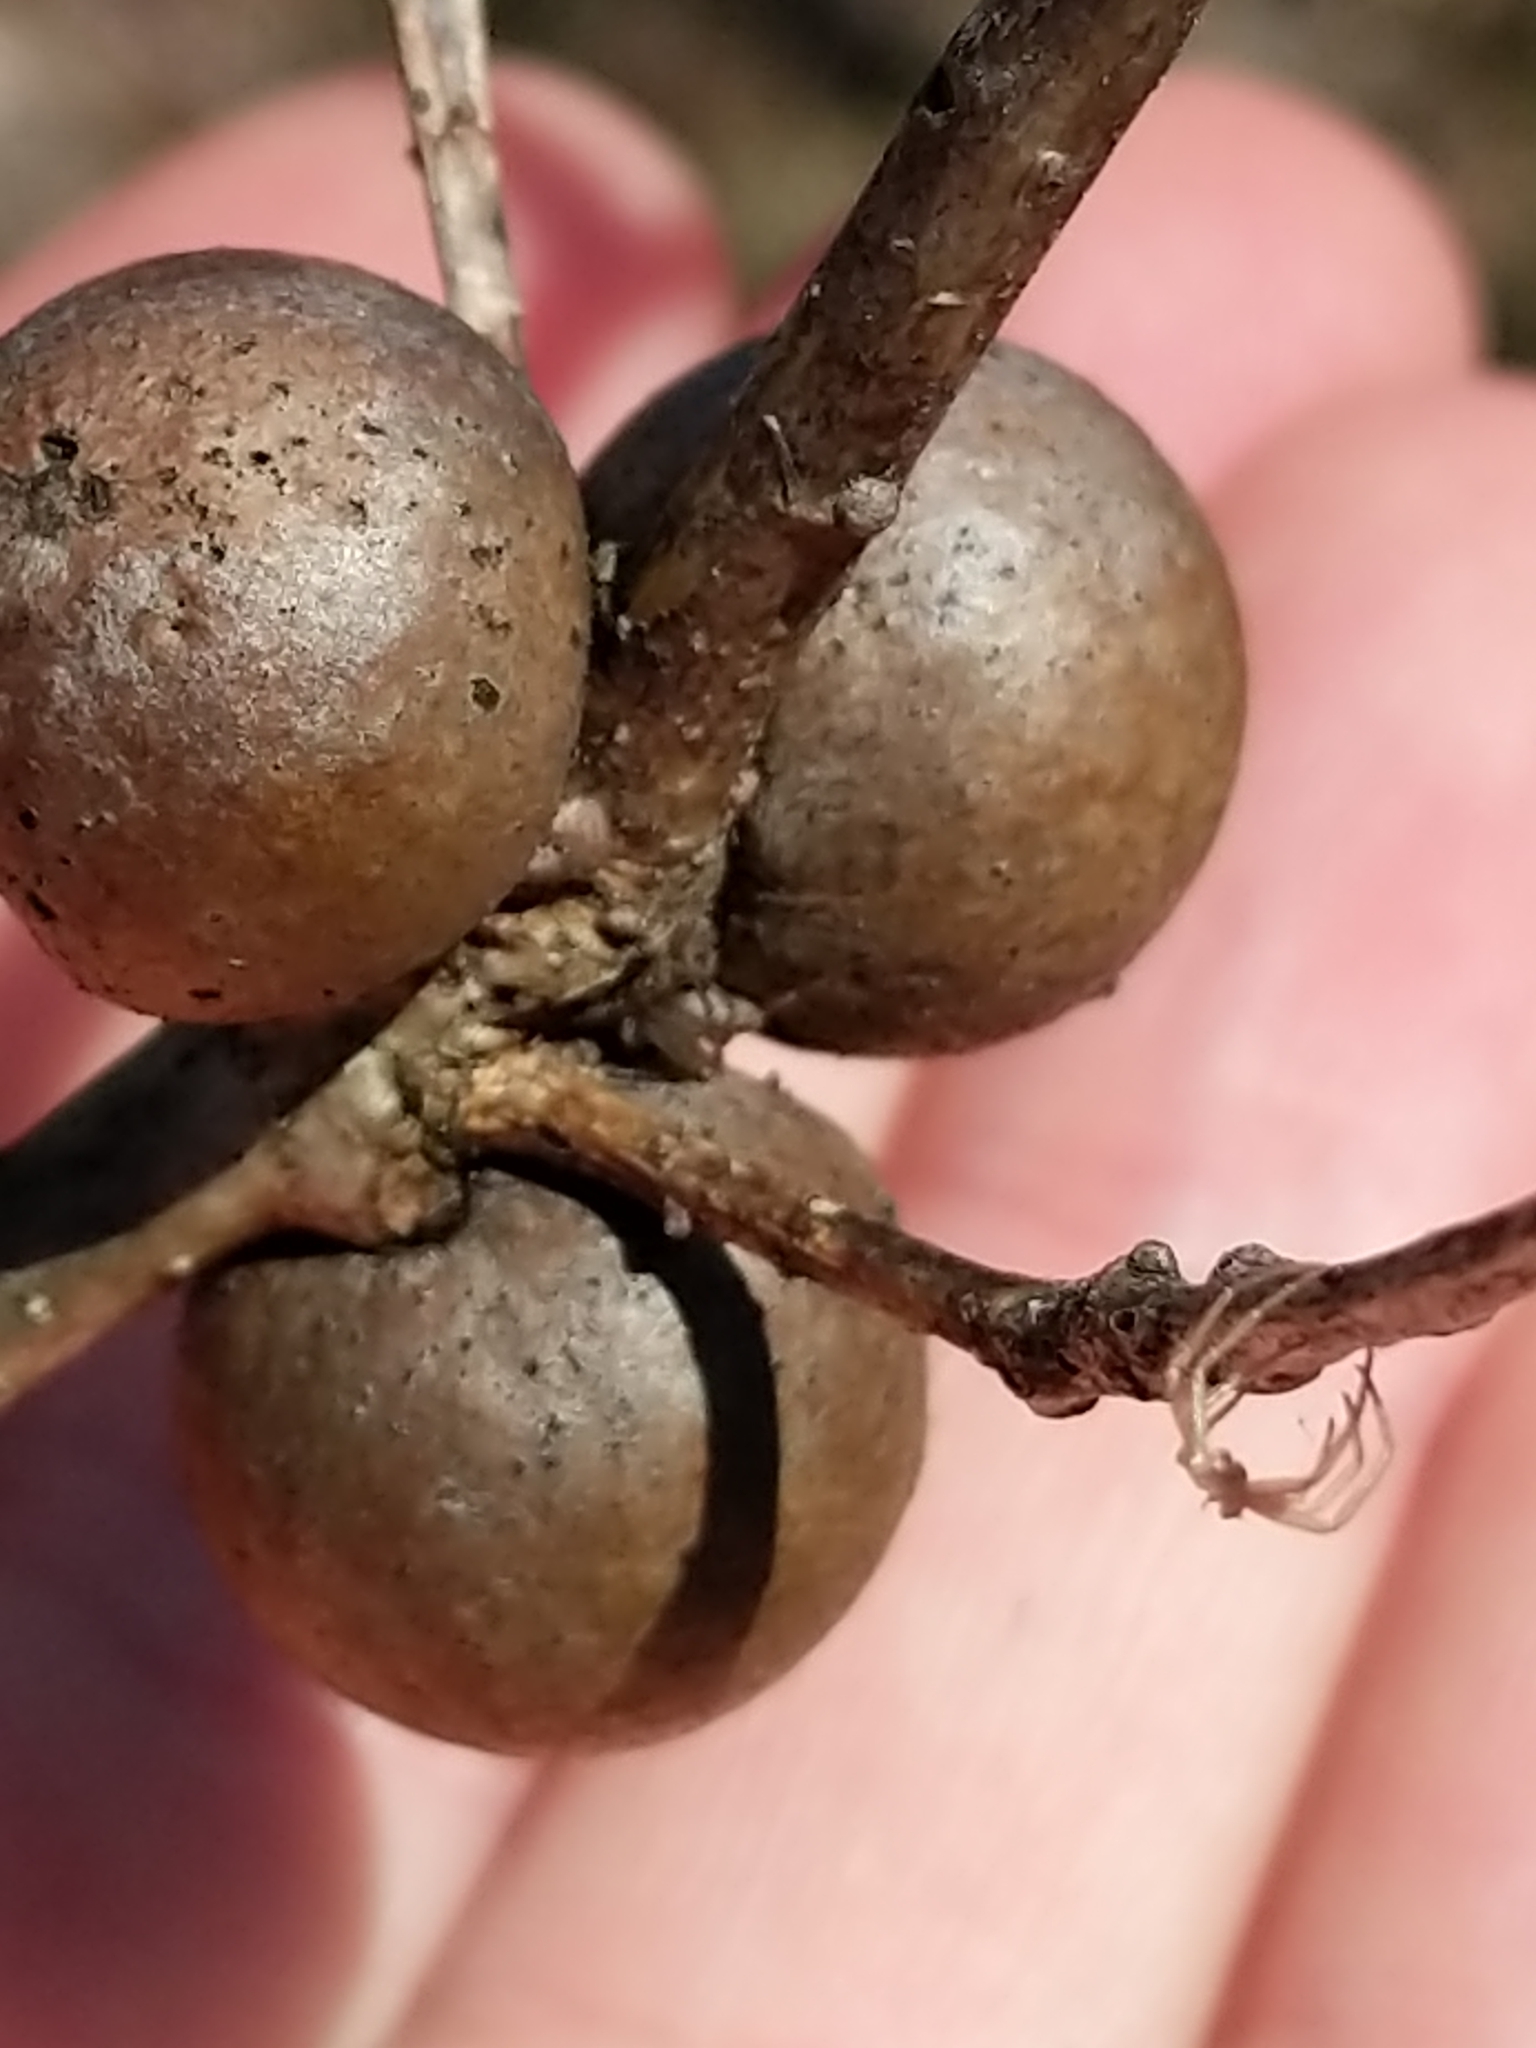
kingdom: Animalia
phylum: Arthropoda
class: Insecta
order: Hymenoptera
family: Cynipidae
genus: Disholcaspis
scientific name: Disholcaspis quercusglobulus
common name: Round bullet gall wasp
